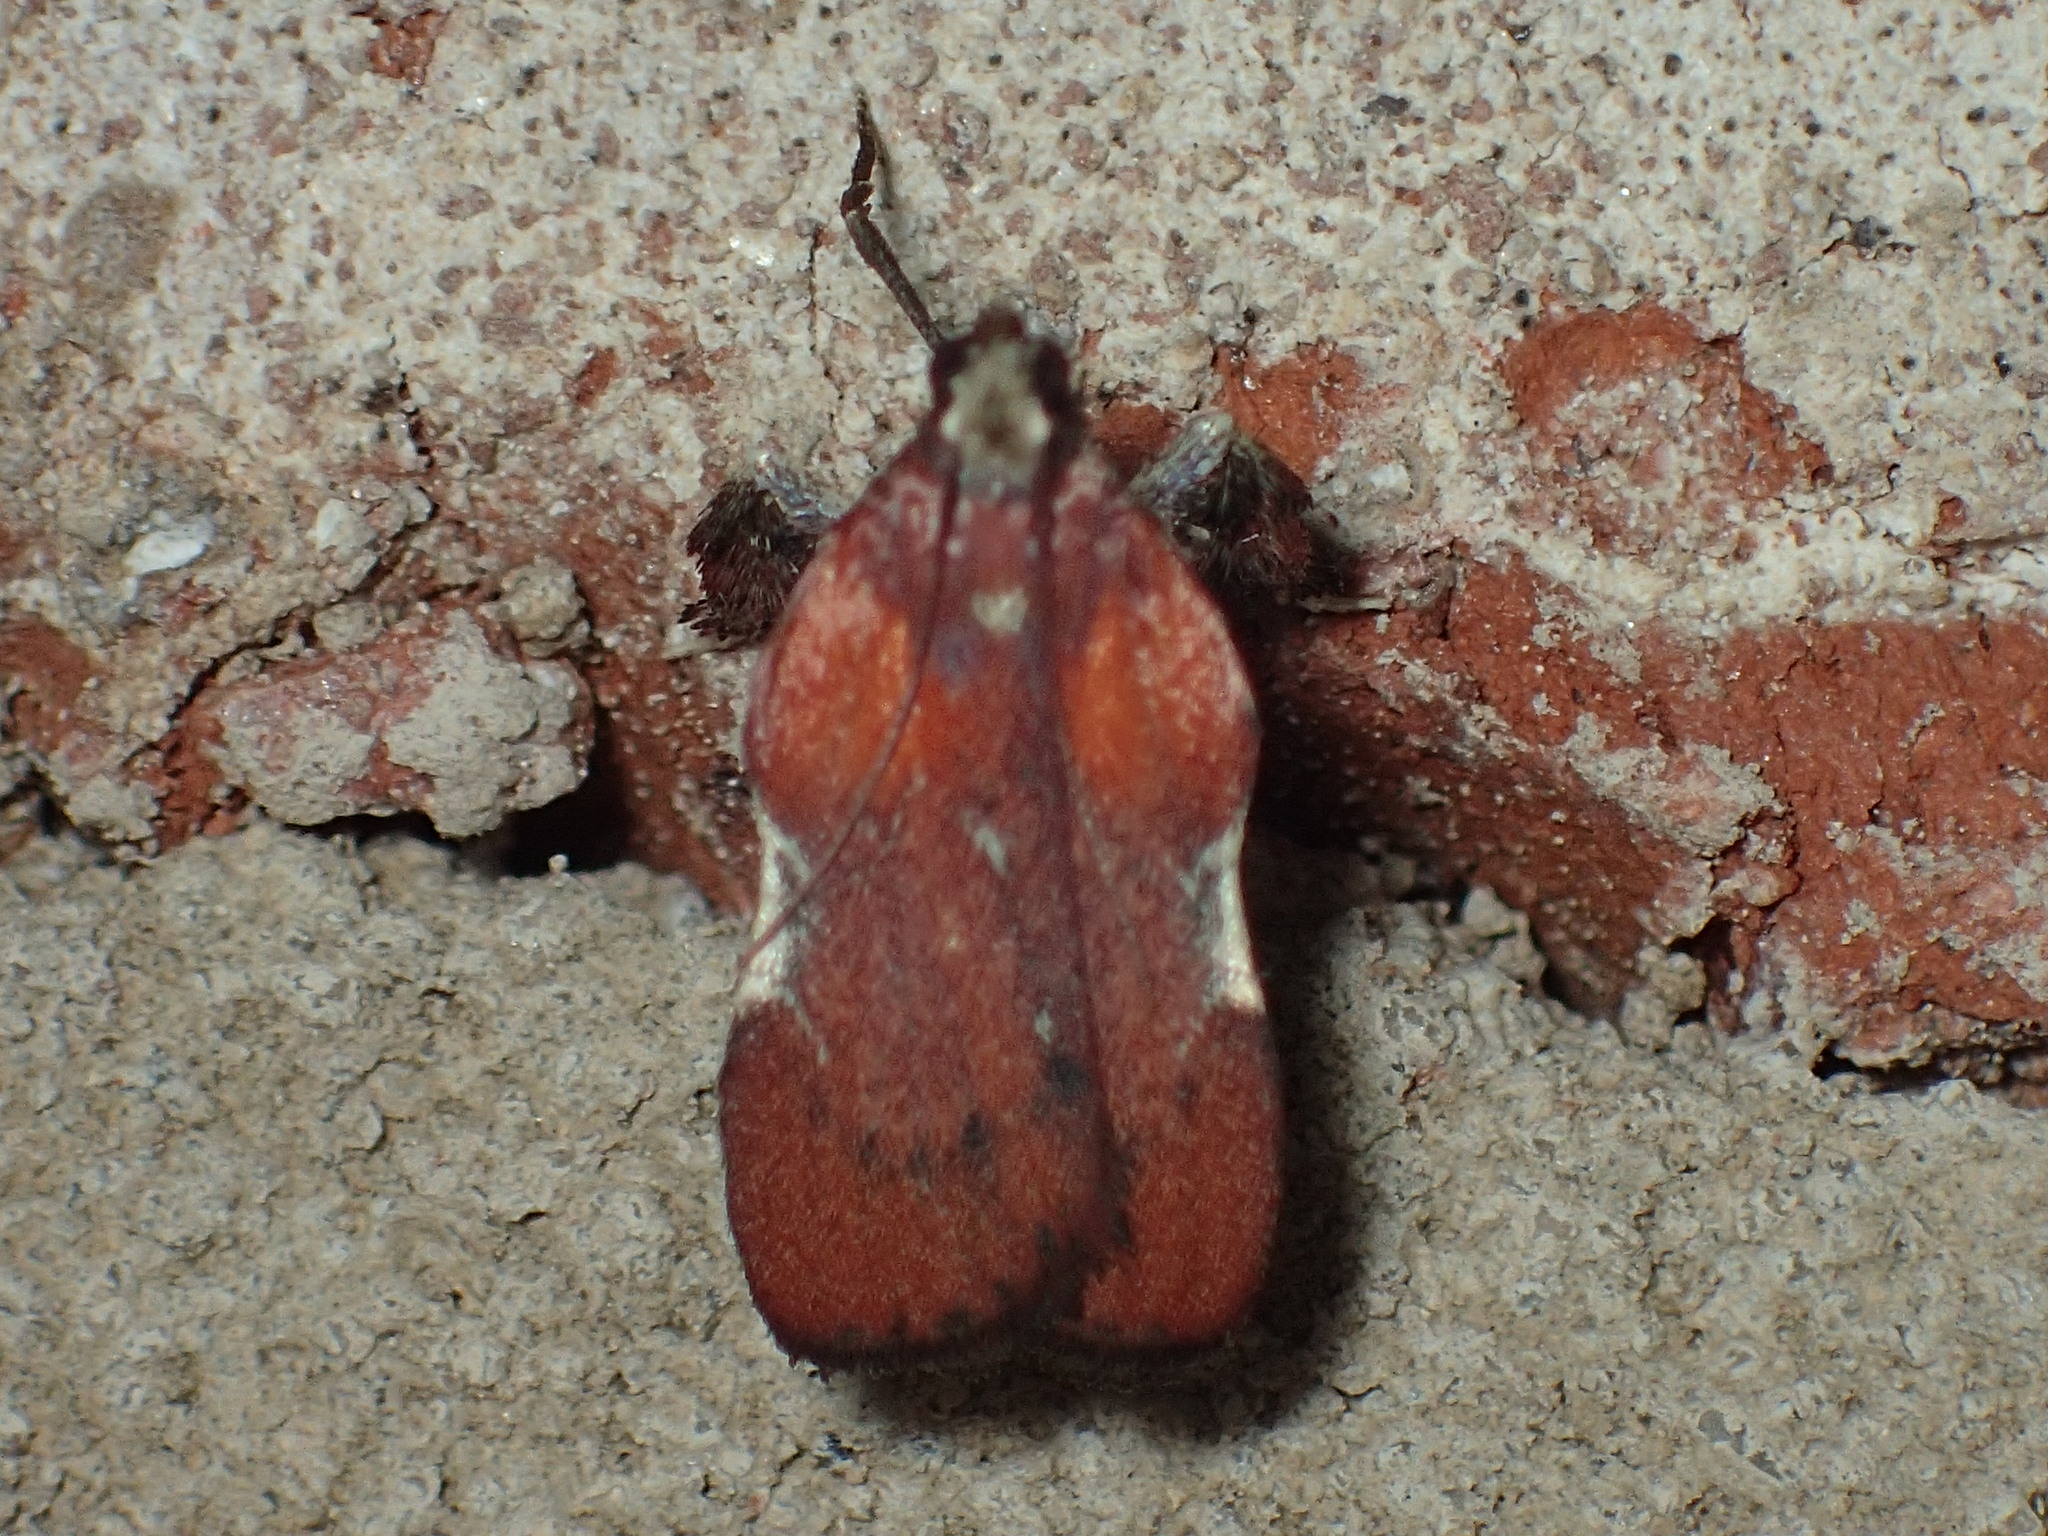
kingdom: Animalia
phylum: Arthropoda
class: Insecta
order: Lepidoptera
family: Pyralidae
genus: Galasa
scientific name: Galasa nigrinodis
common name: Boxwood leaftier moth
